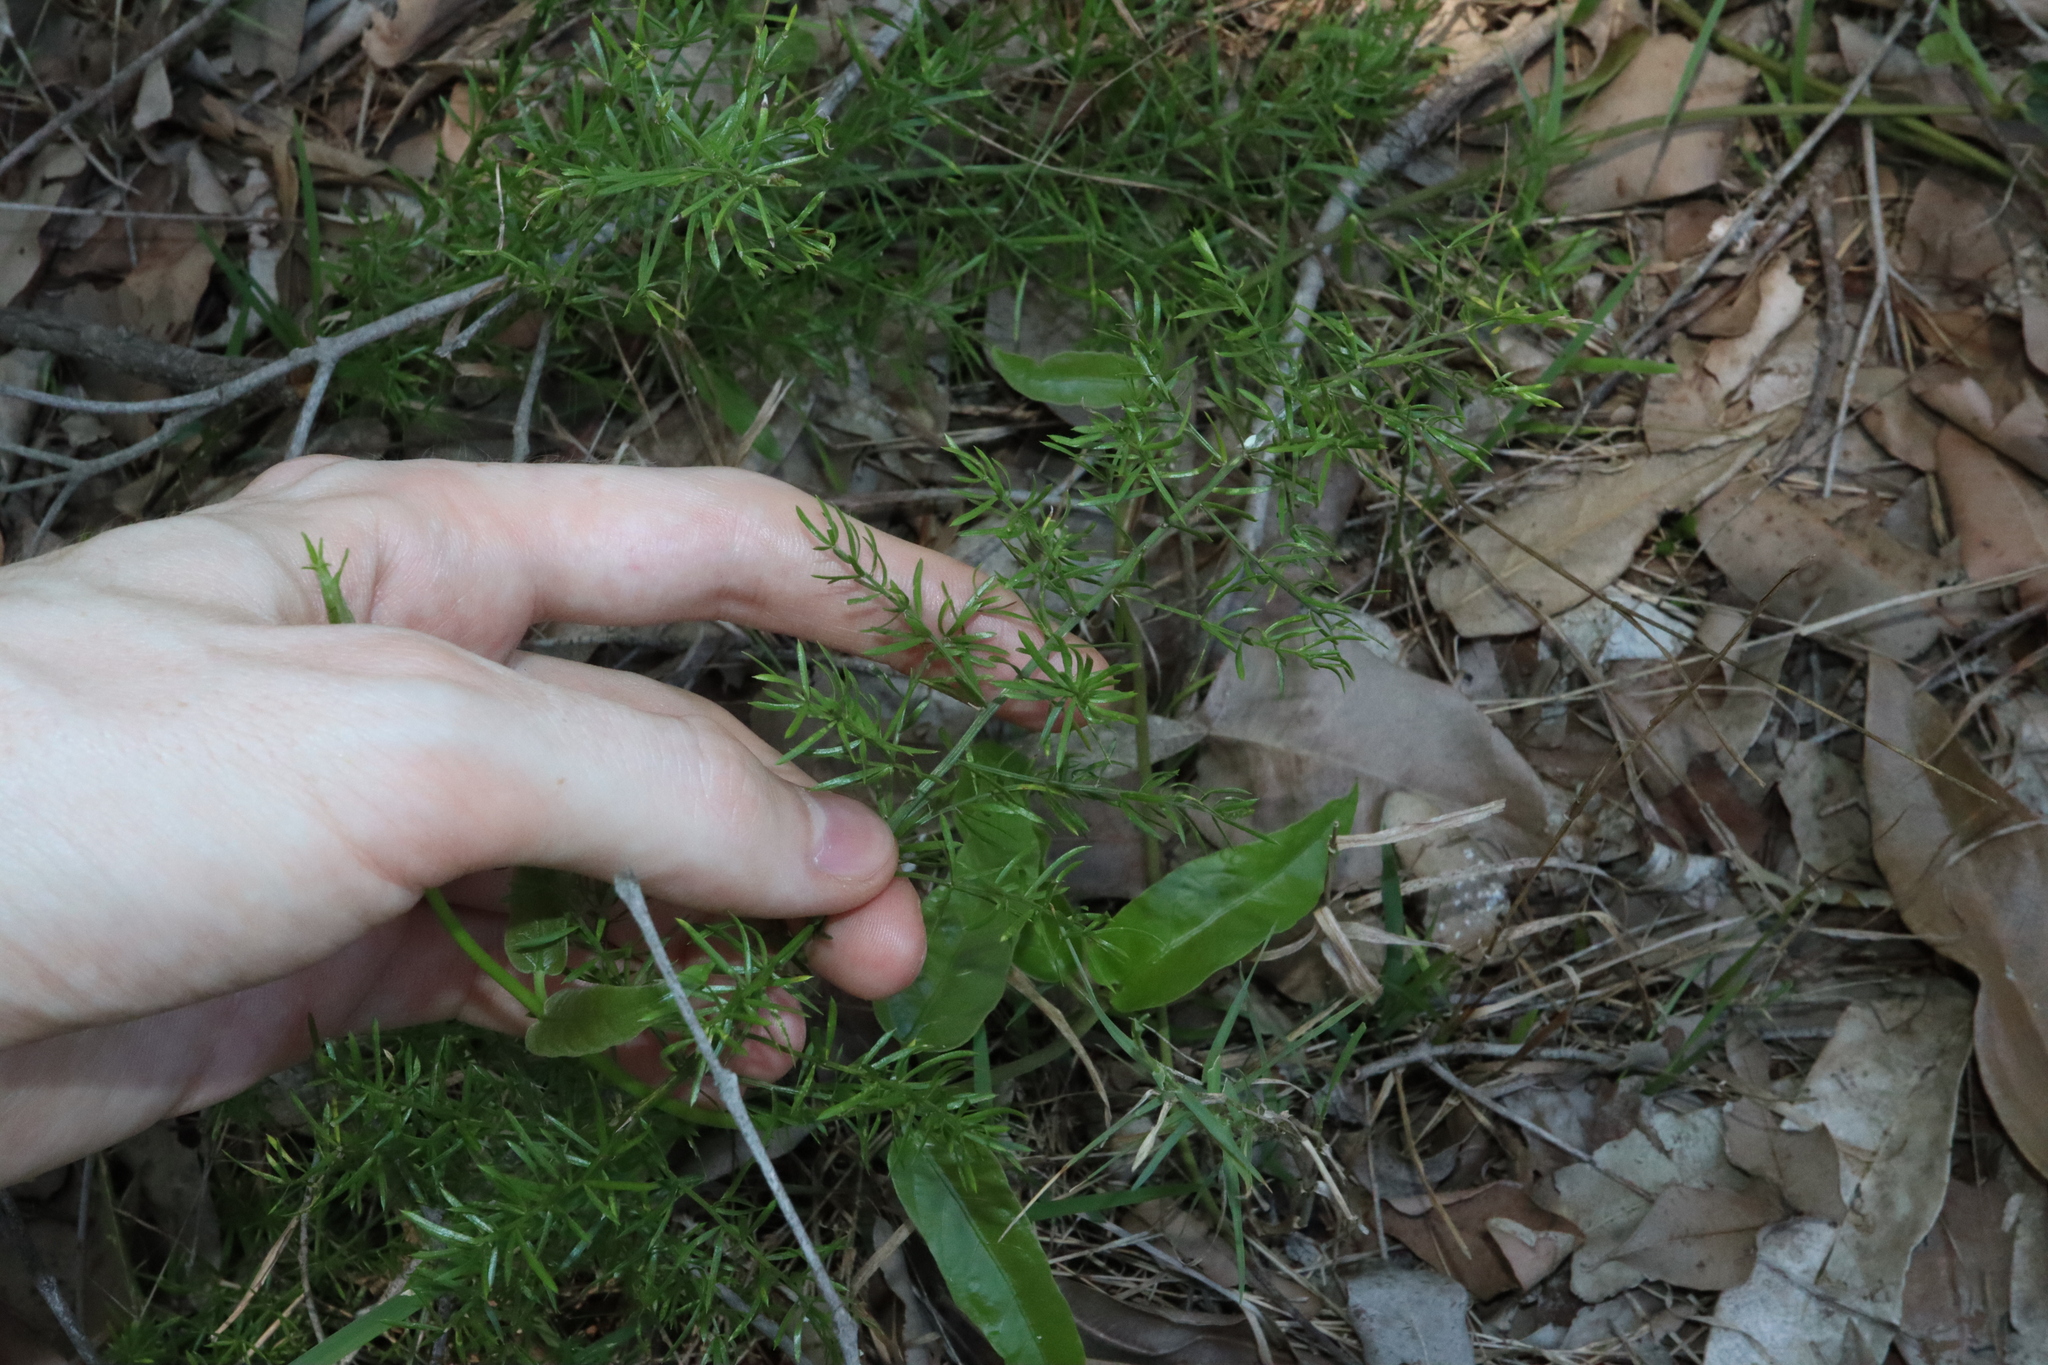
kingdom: Plantae
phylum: Tracheophyta
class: Liliopsida
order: Asparagales
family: Asparagaceae
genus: Asparagus
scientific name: Asparagus aethiopicus
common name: Sprenger's asparagus fern
